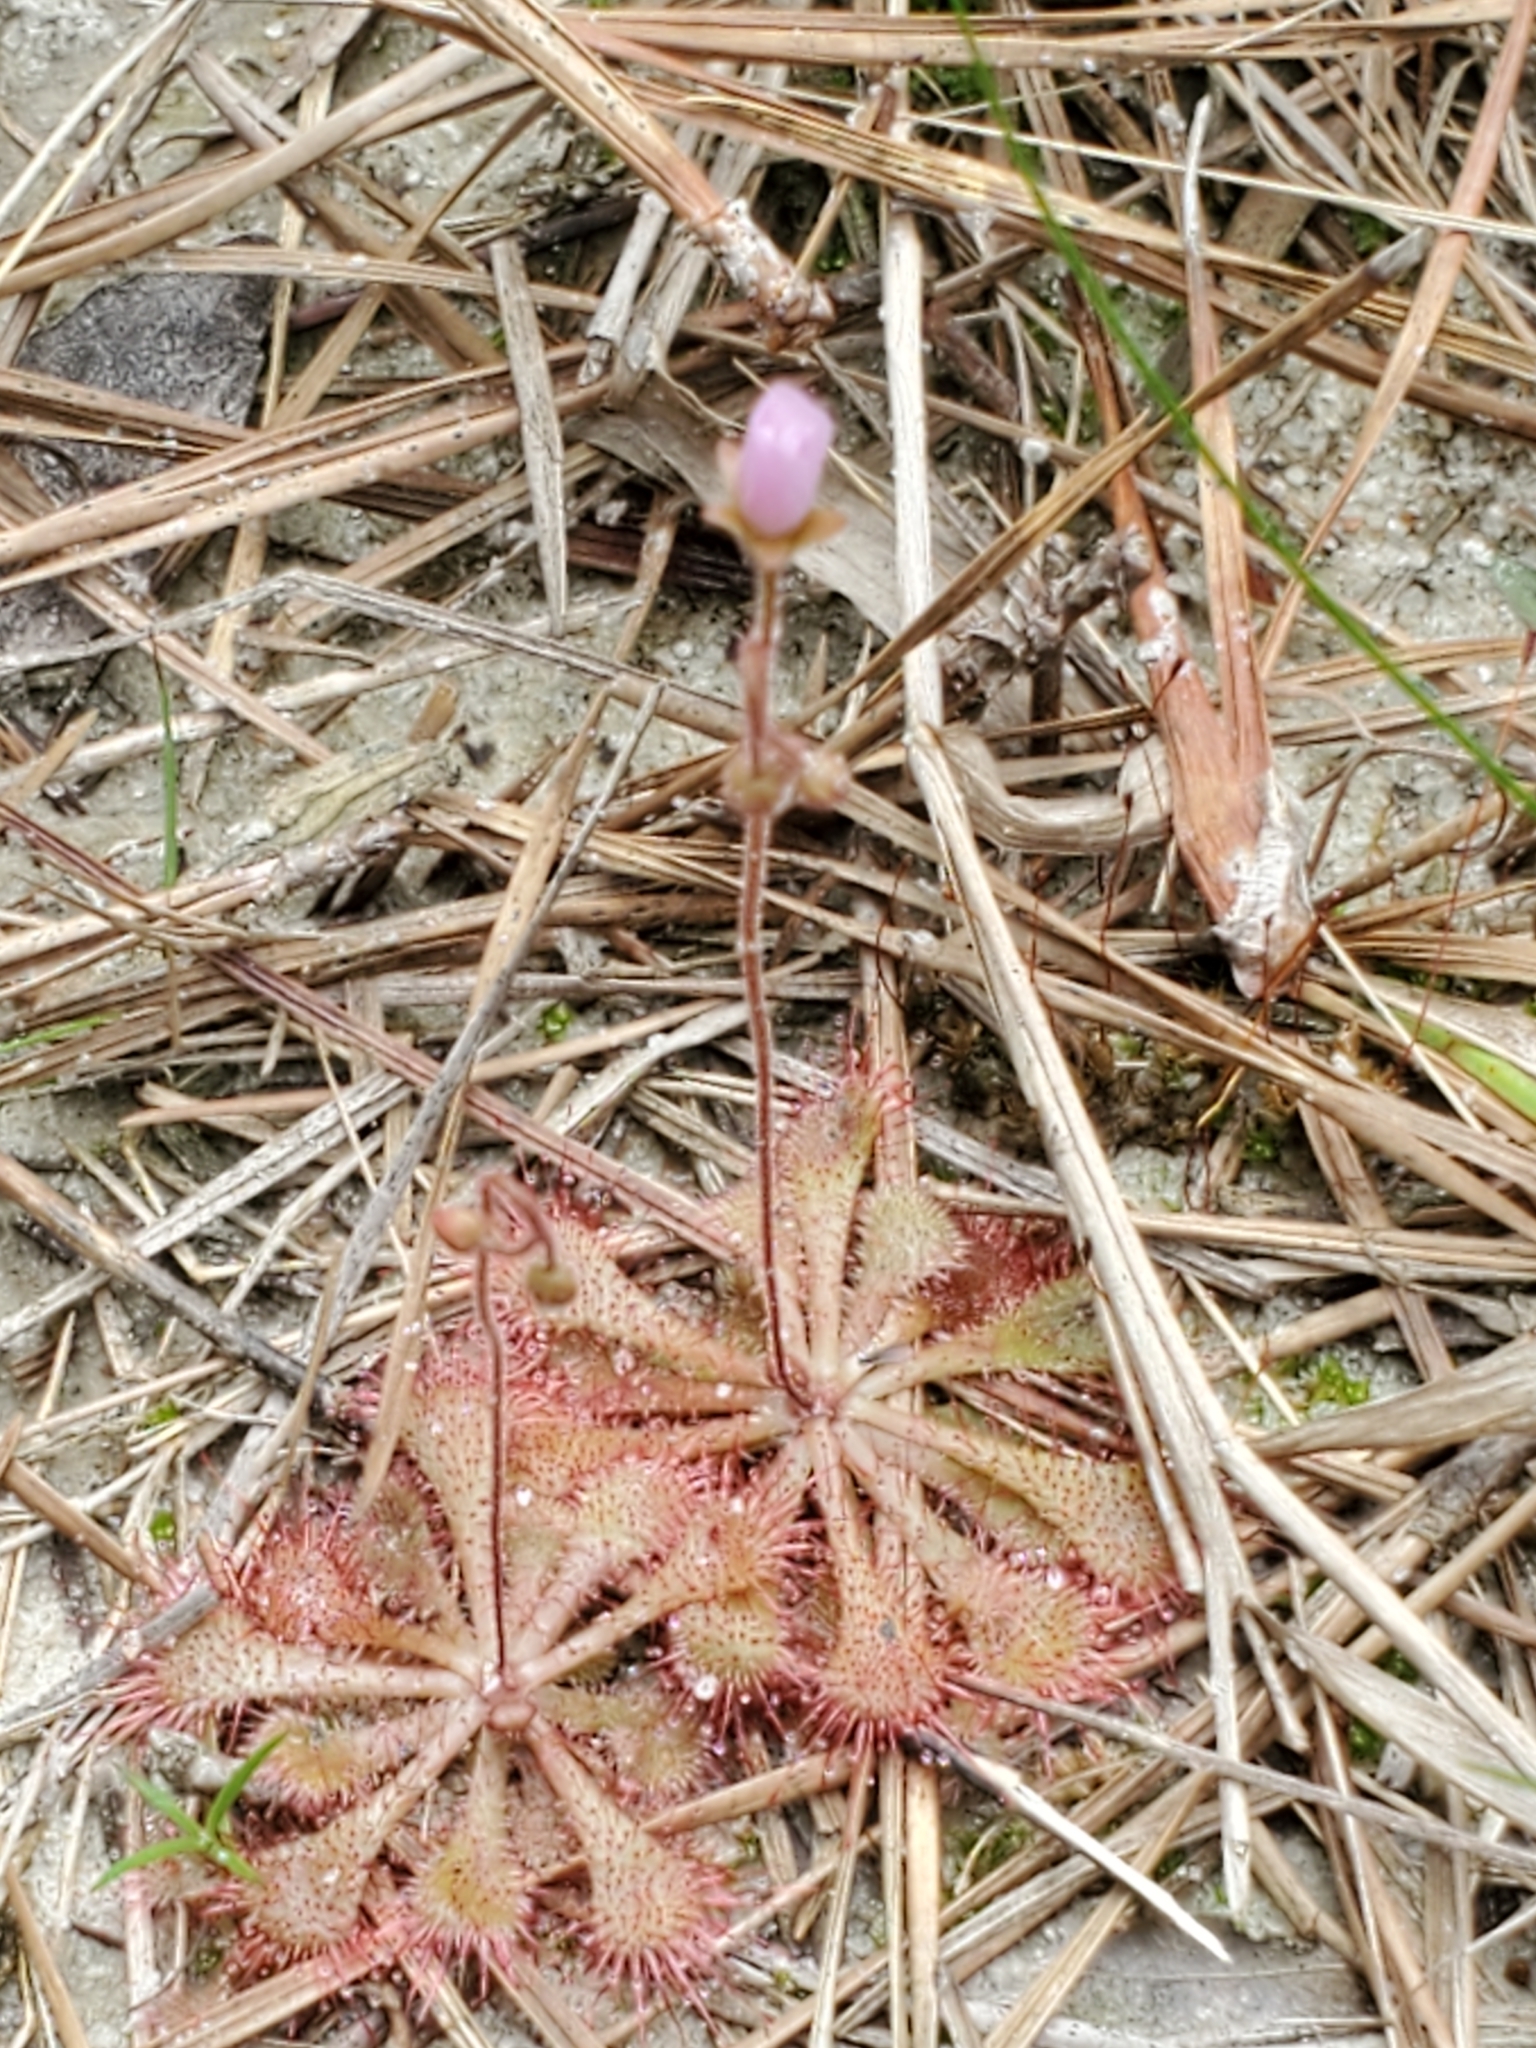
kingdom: Plantae
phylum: Tracheophyta
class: Magnoliopsida
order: Caryophyllales
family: Droseraceae
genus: Drosera
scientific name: Drosera brevifolia
